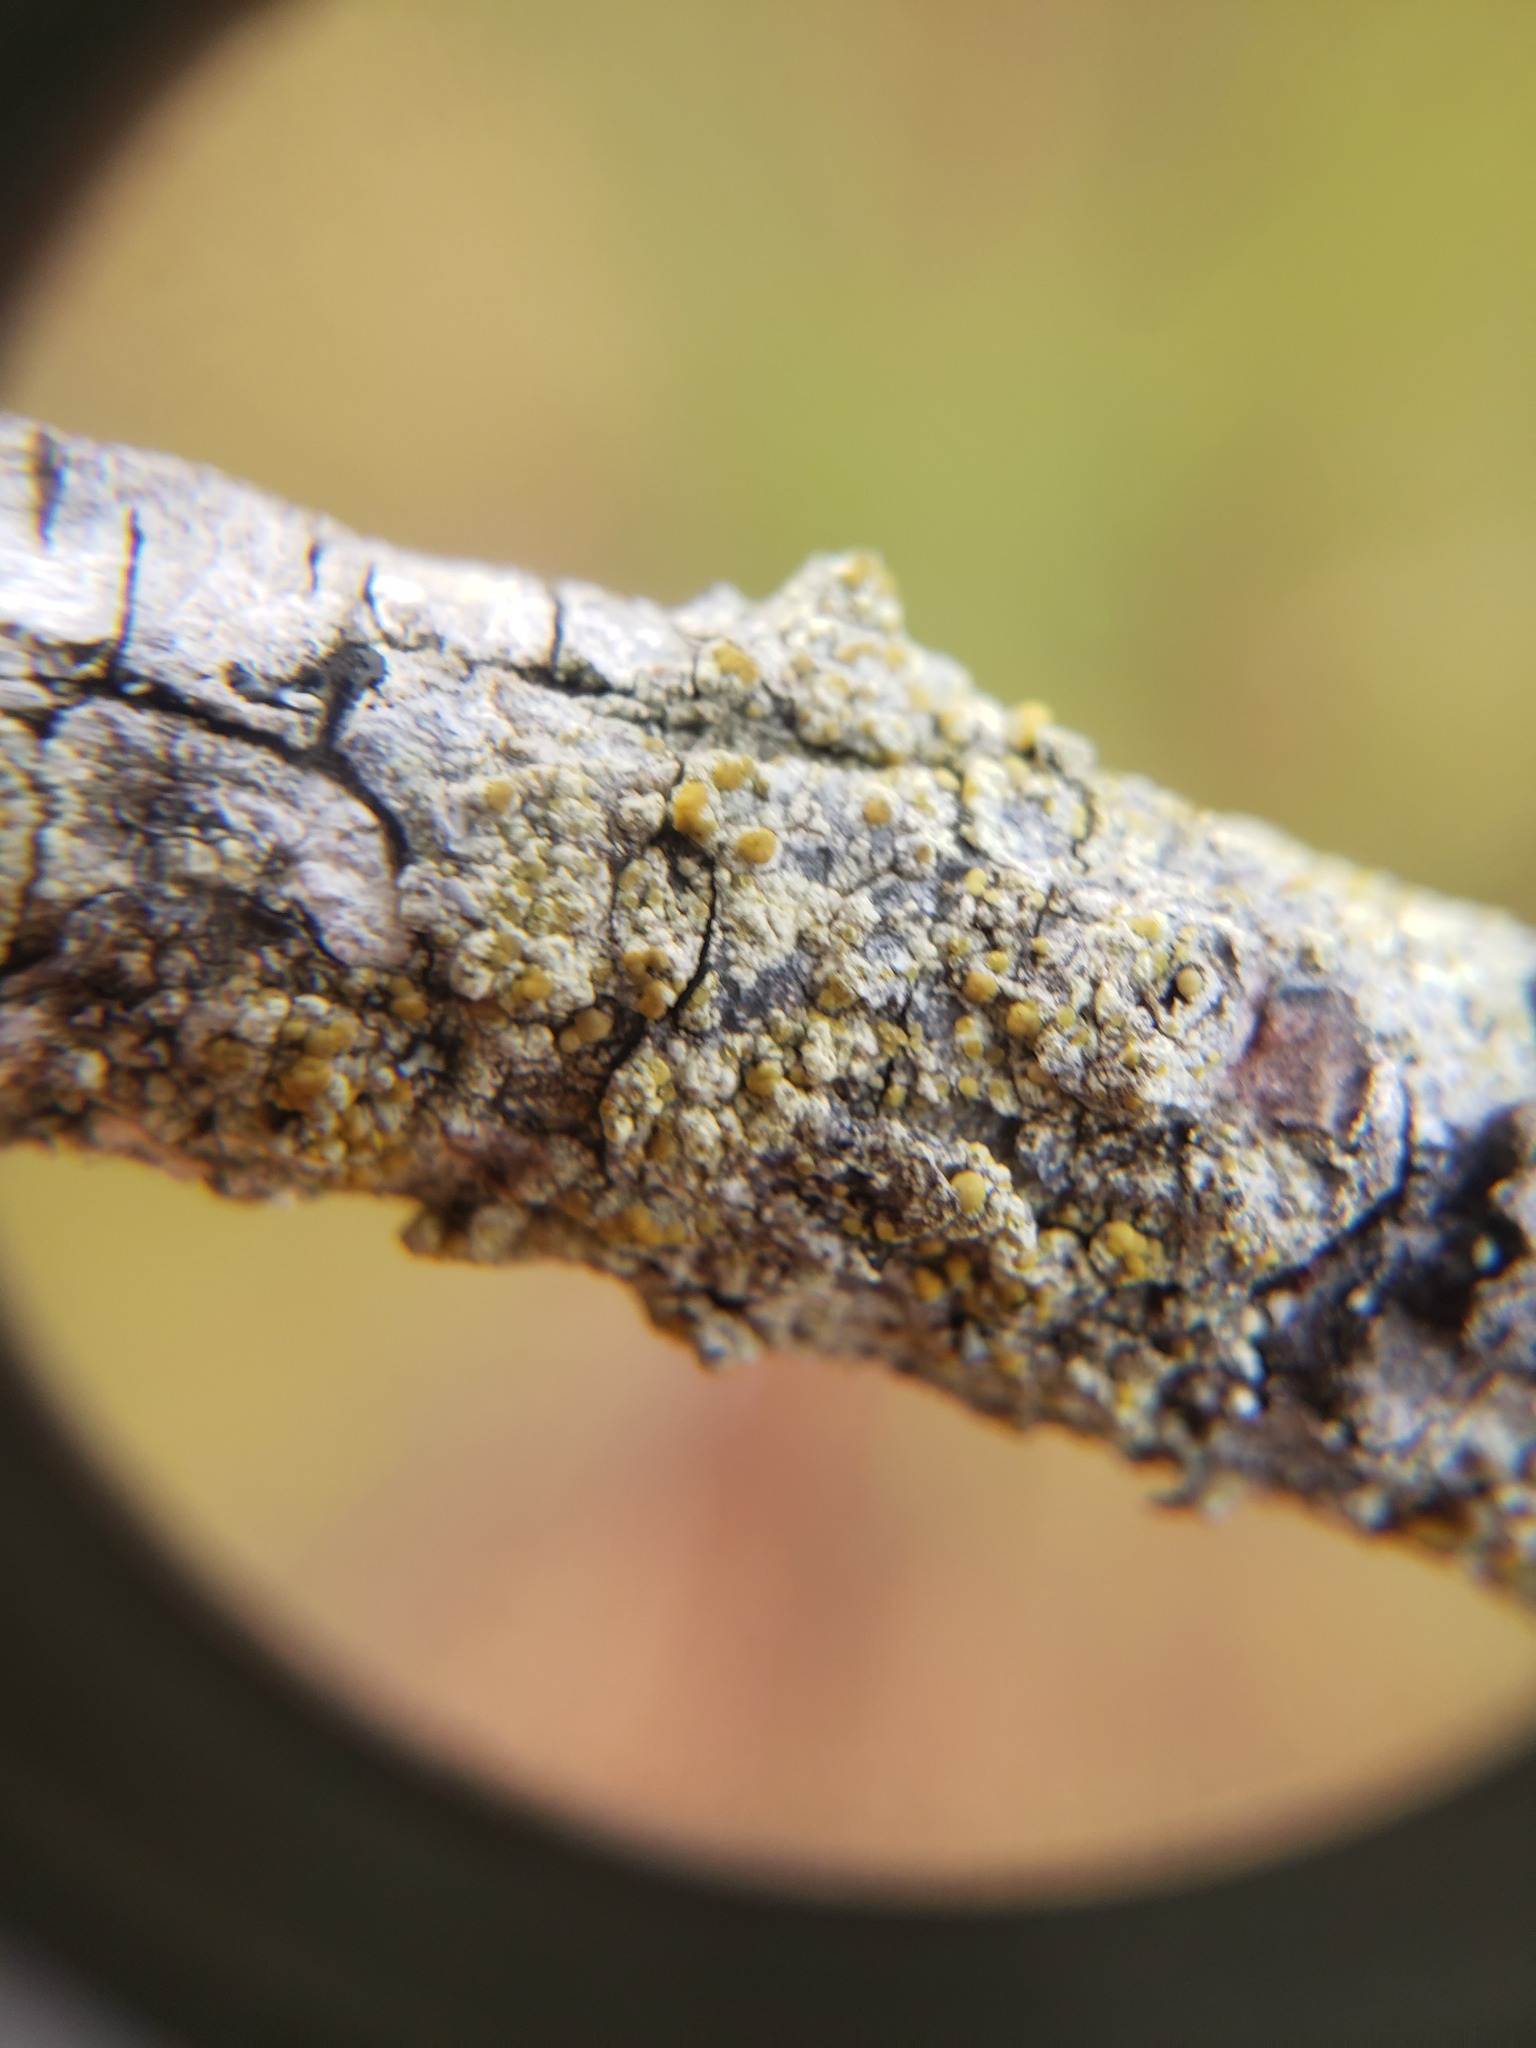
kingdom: Fungi
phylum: Ascomycota
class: Lecanoromycetes
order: Lecanorales
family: Lecanoraceae
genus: Lecanora
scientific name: Lecanora symmicta
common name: Fused rim lichen
